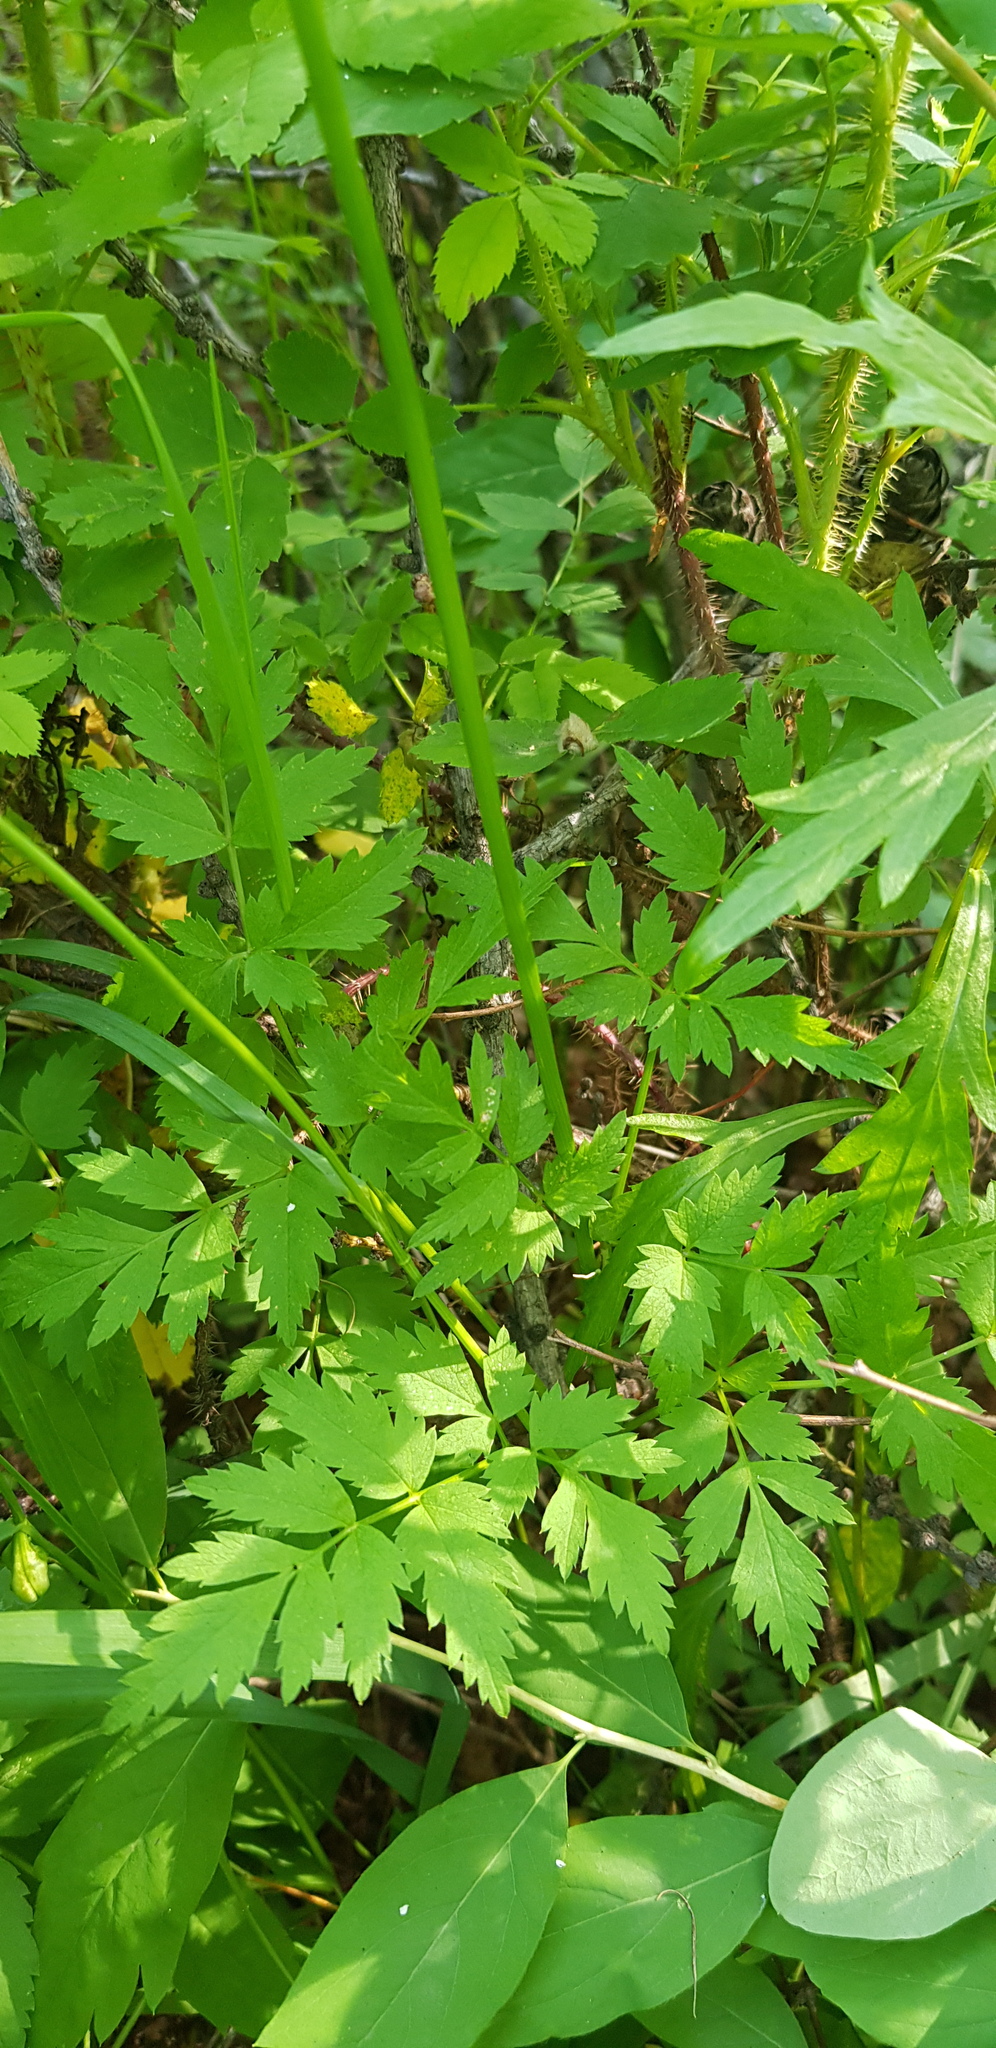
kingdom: Plantae
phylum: Tracheophyta
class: Magnoliopsida
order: Apiales
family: Apiaceae
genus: Aegopodium
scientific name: Aegopodium alpestre
